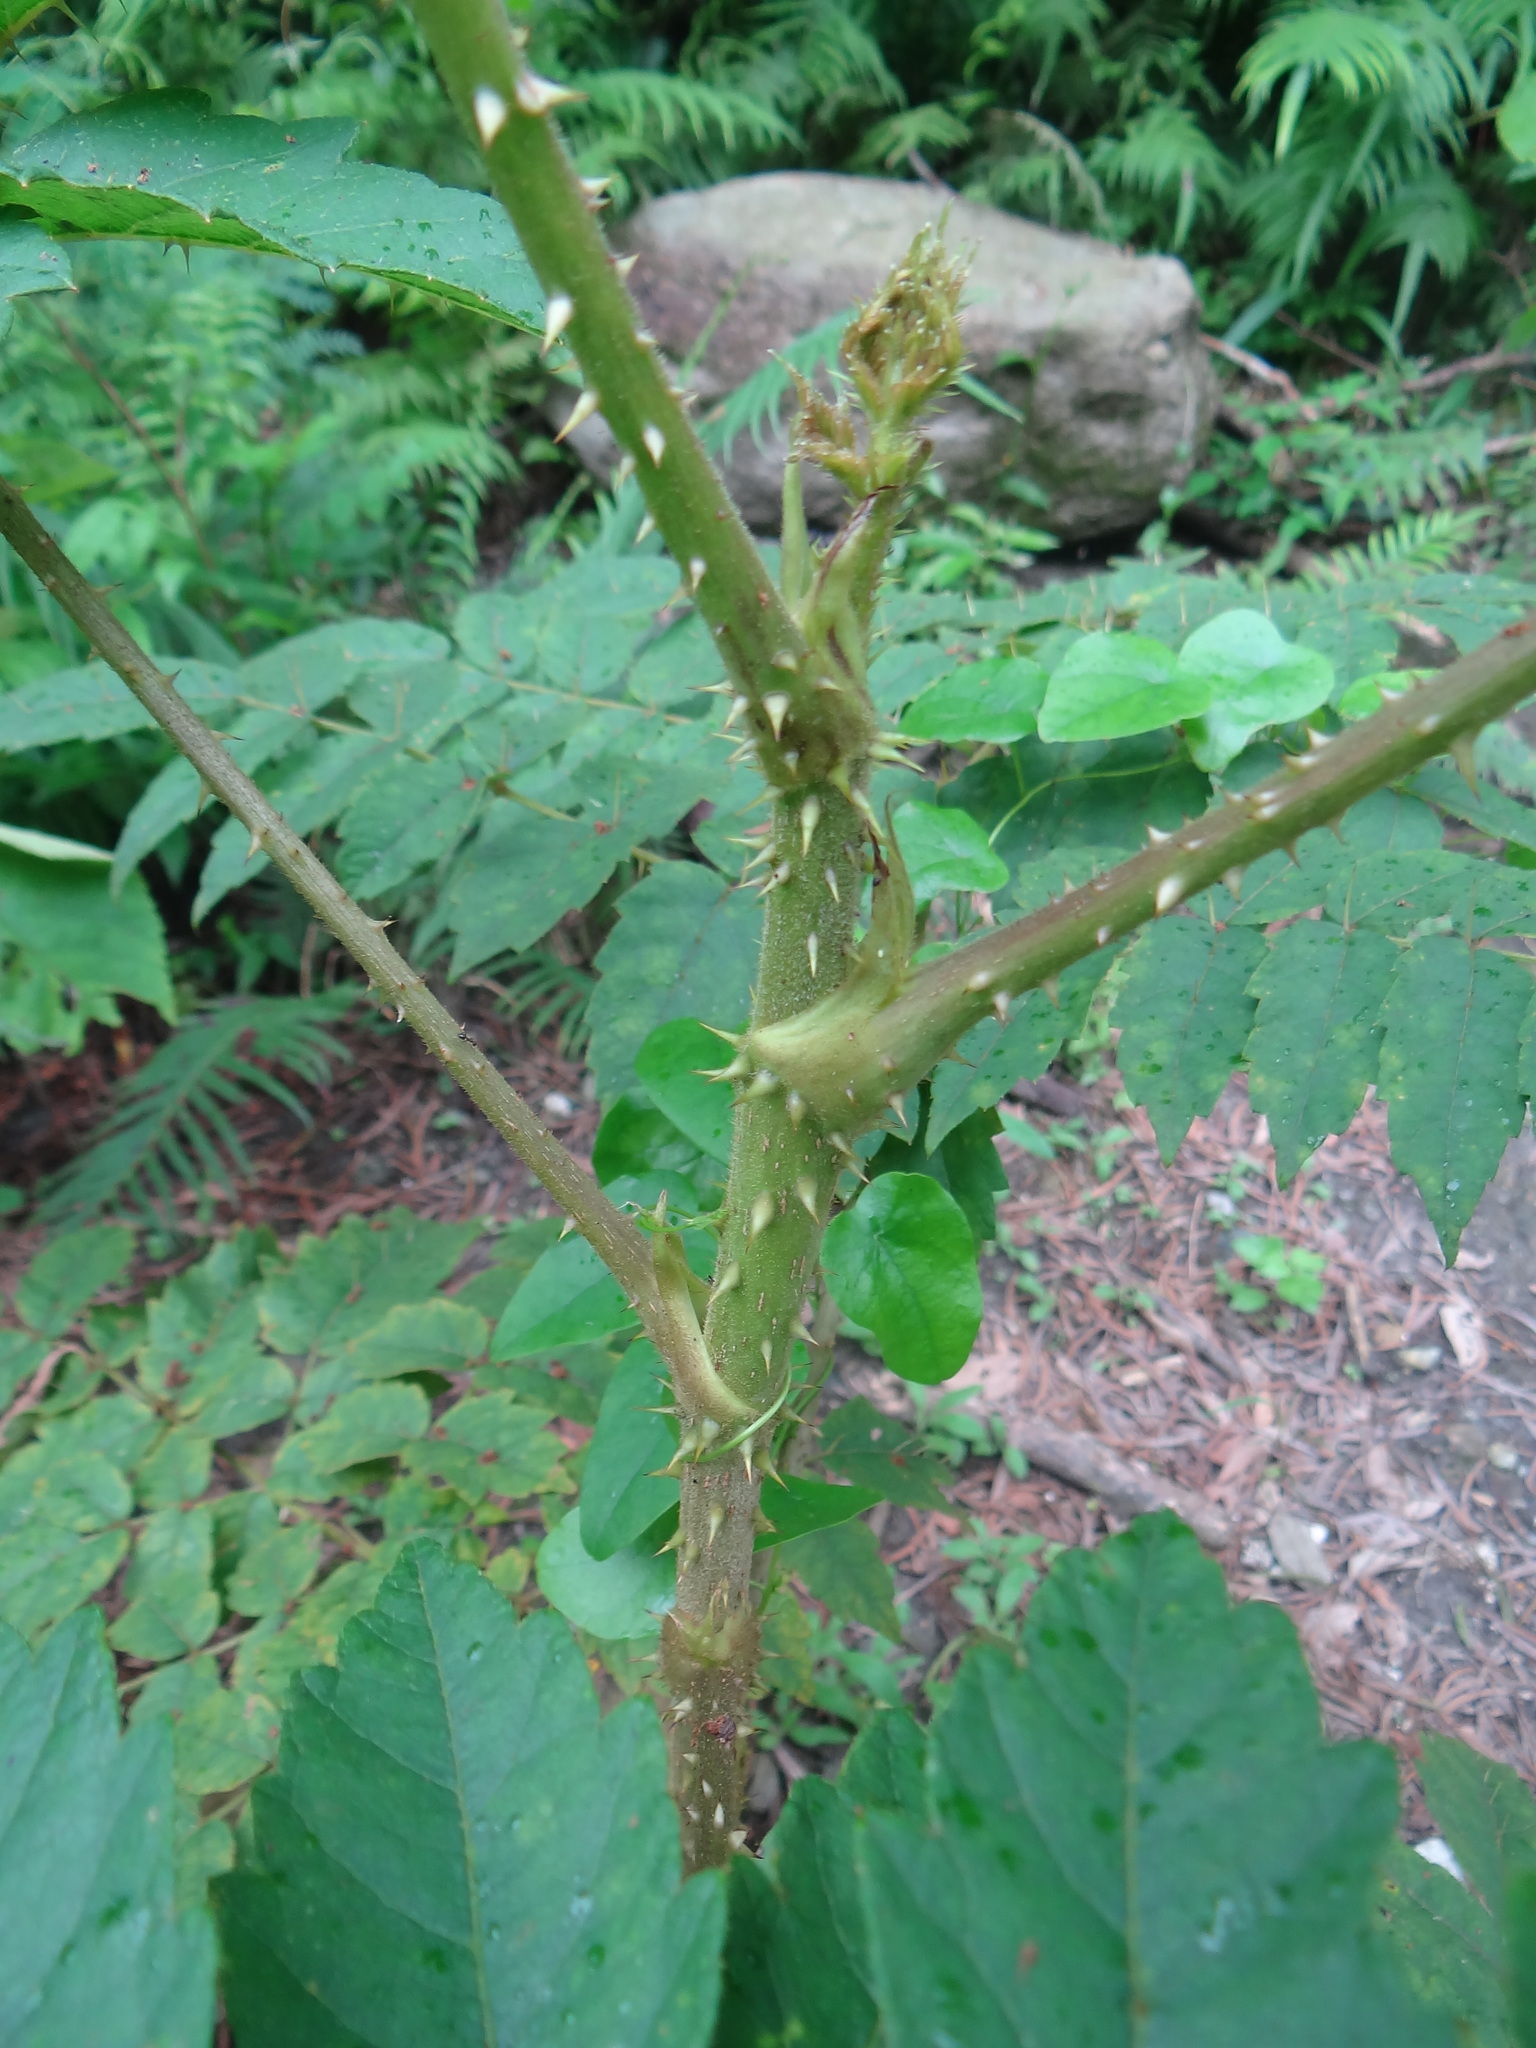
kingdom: Plantae
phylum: Tracheophyta
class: Magnoliopsida
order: Apiales
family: Araliaceae
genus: Aralia
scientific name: Aralia decaisneana
